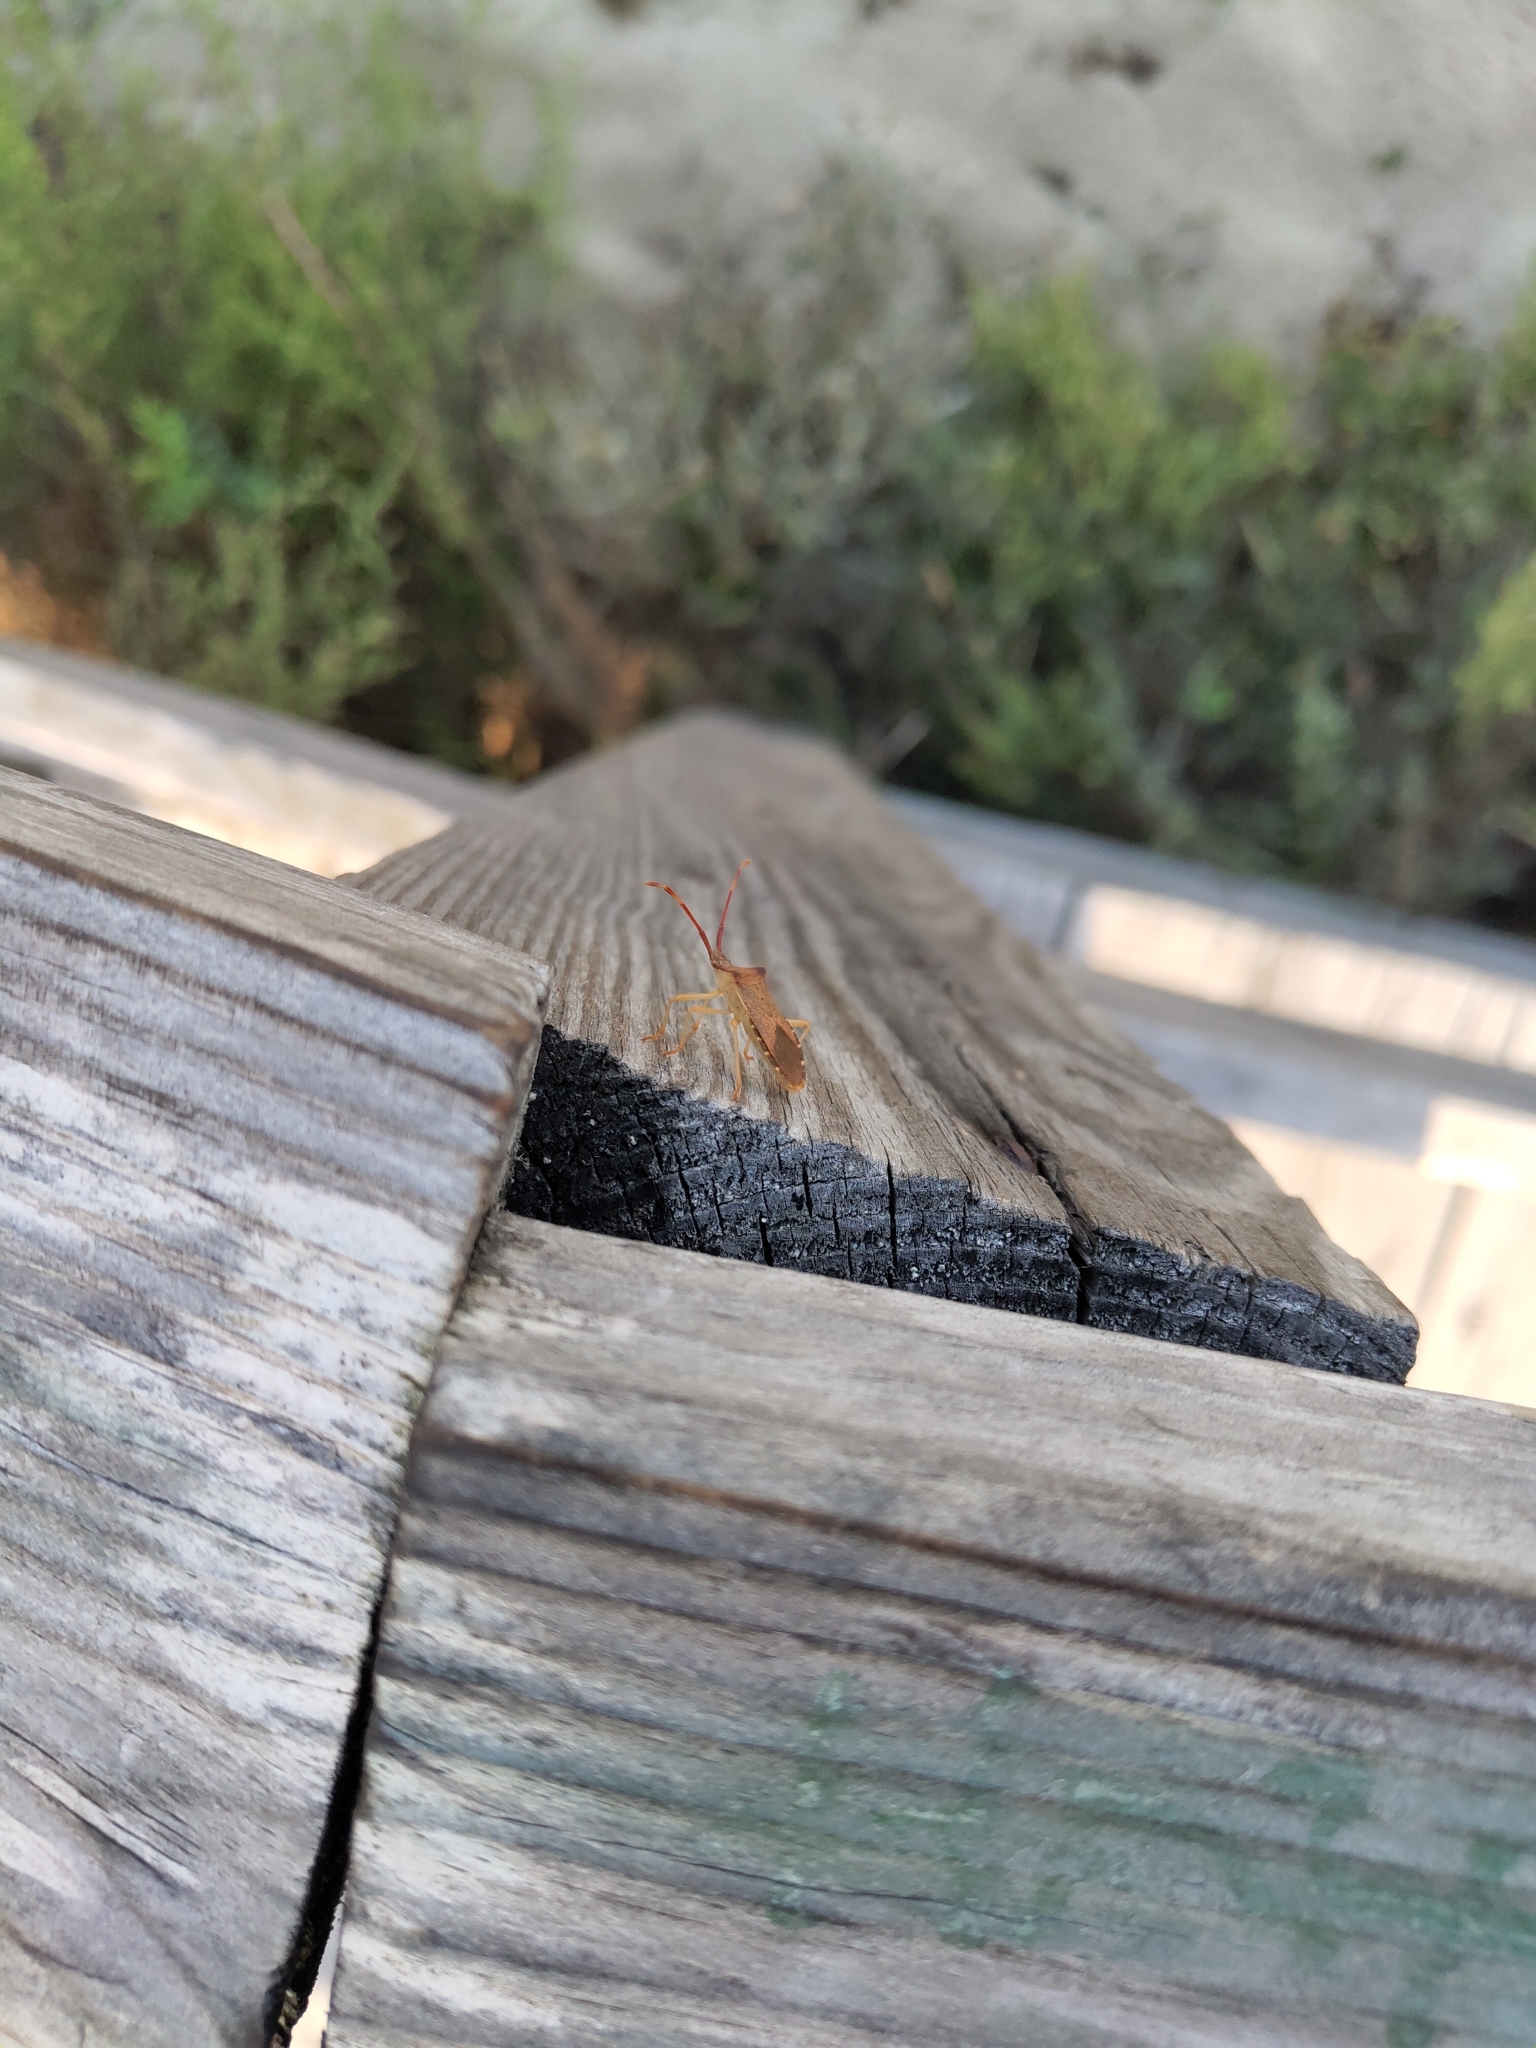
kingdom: Animalia
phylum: Arthropoda
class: Insecta
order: Hemiptera
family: Coreidae
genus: Gonocerus
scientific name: Gonocerus acuteangulatus
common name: Box bug
